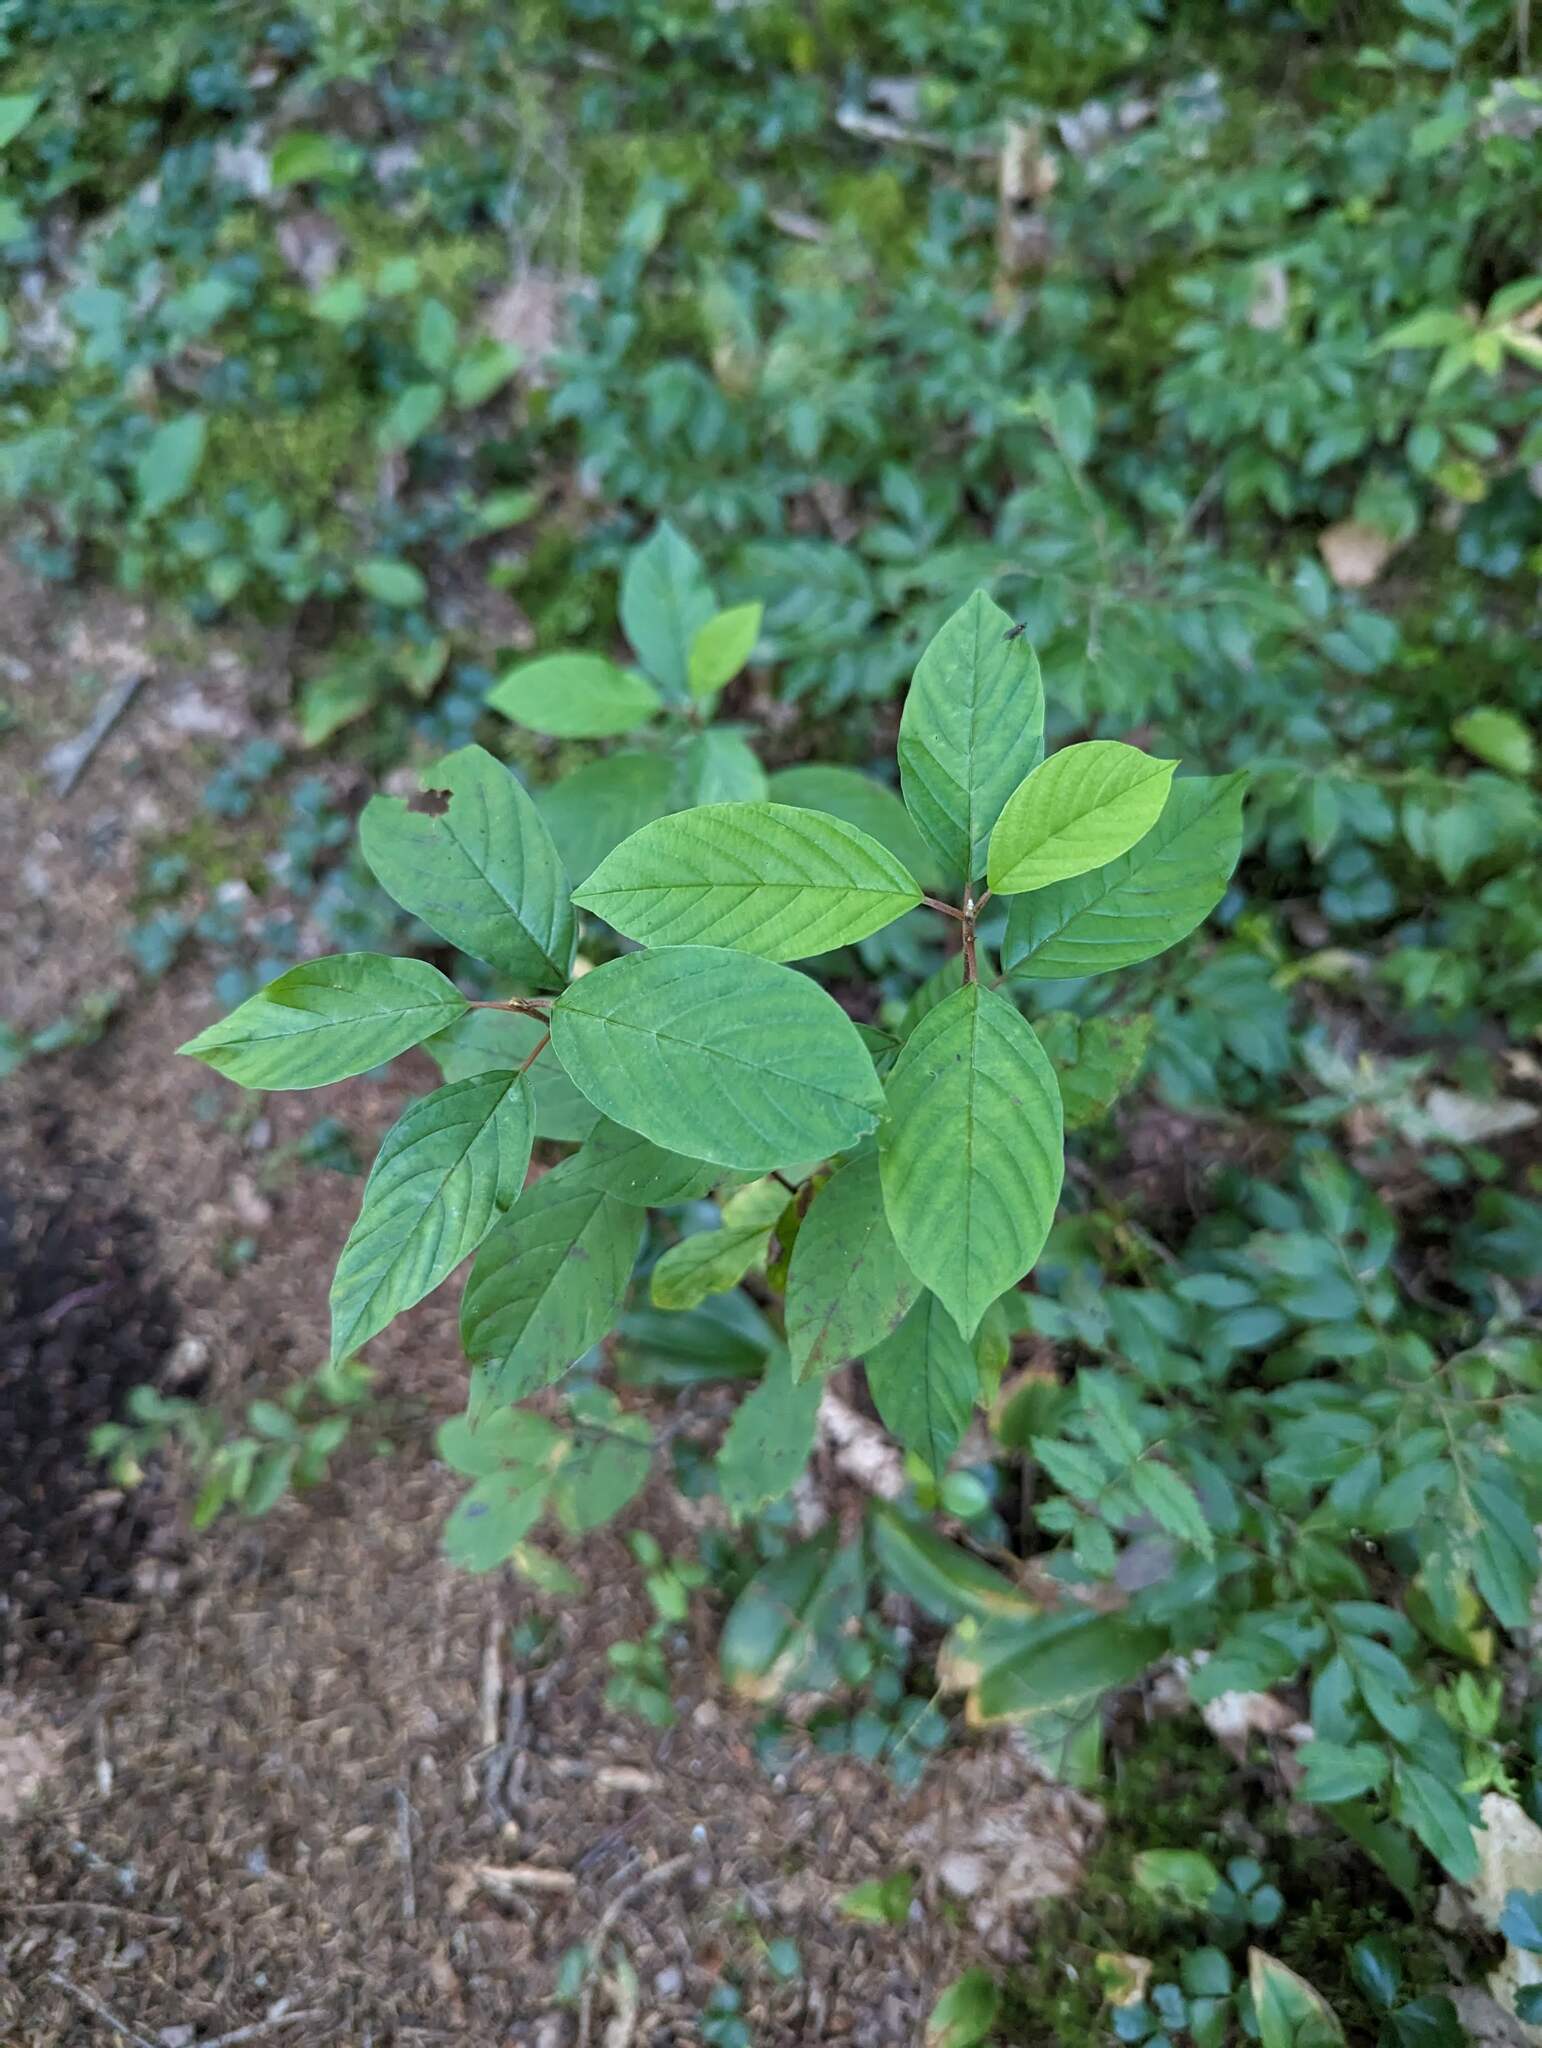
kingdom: Plantae
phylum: Tracheophyta
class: Magnoliopsida
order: Rosales
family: Rhamnaceae
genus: Frangula
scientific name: Frangula alnus
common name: Alder buckthorn
